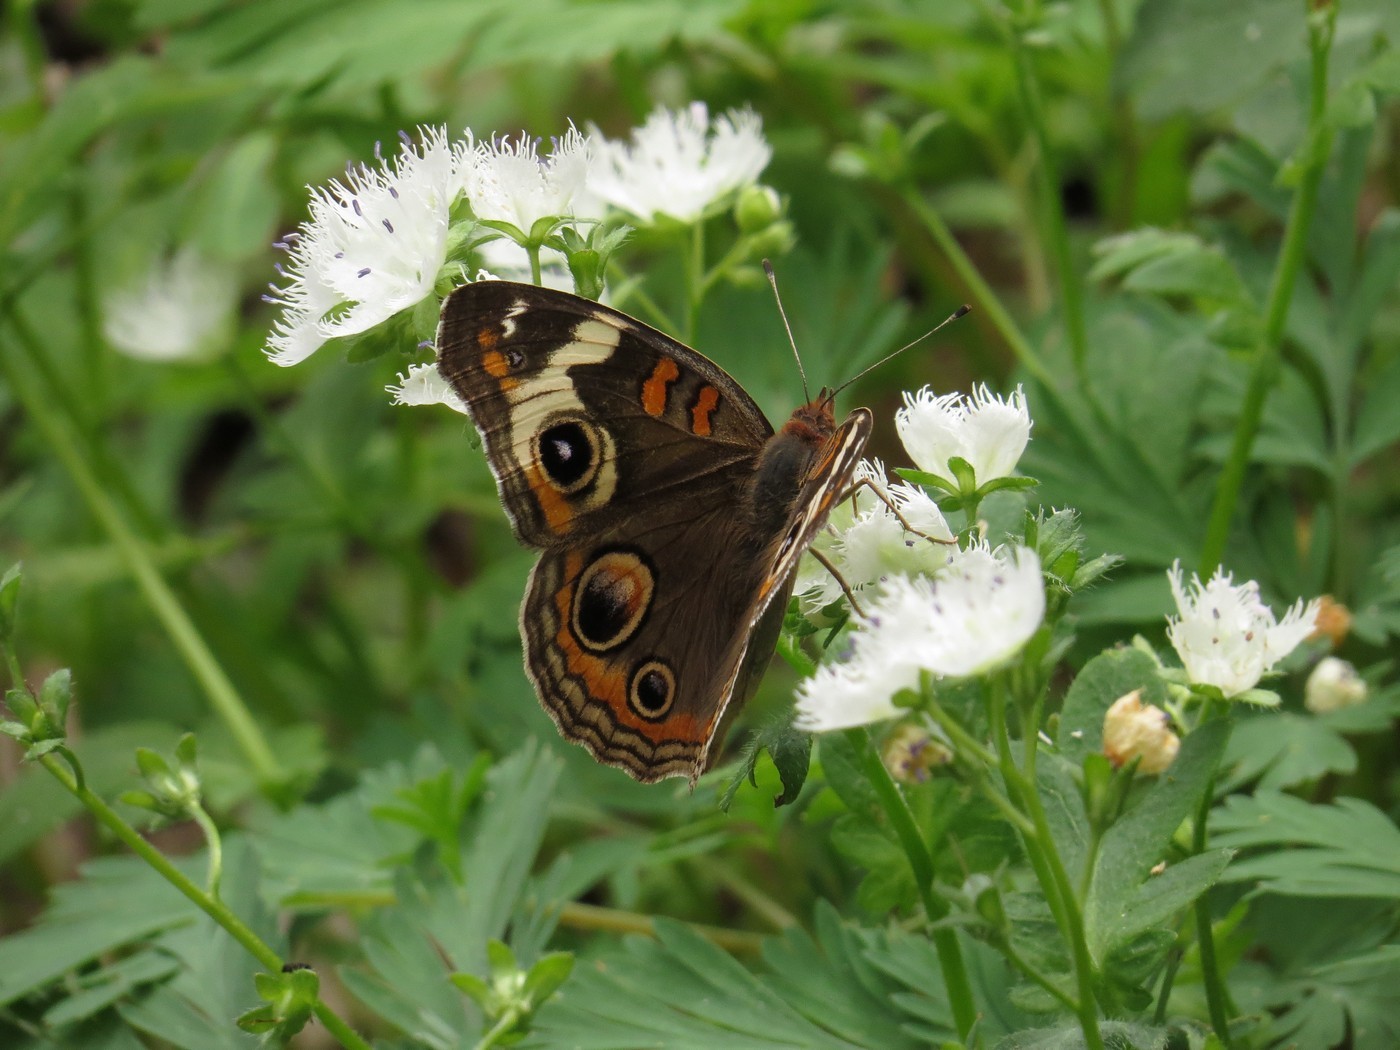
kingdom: Animalia
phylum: Arthropoda
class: Insecta
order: Lepidoptera
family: Nymphalidae
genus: Junonia
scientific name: Junonia coenia
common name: Common buckeye
